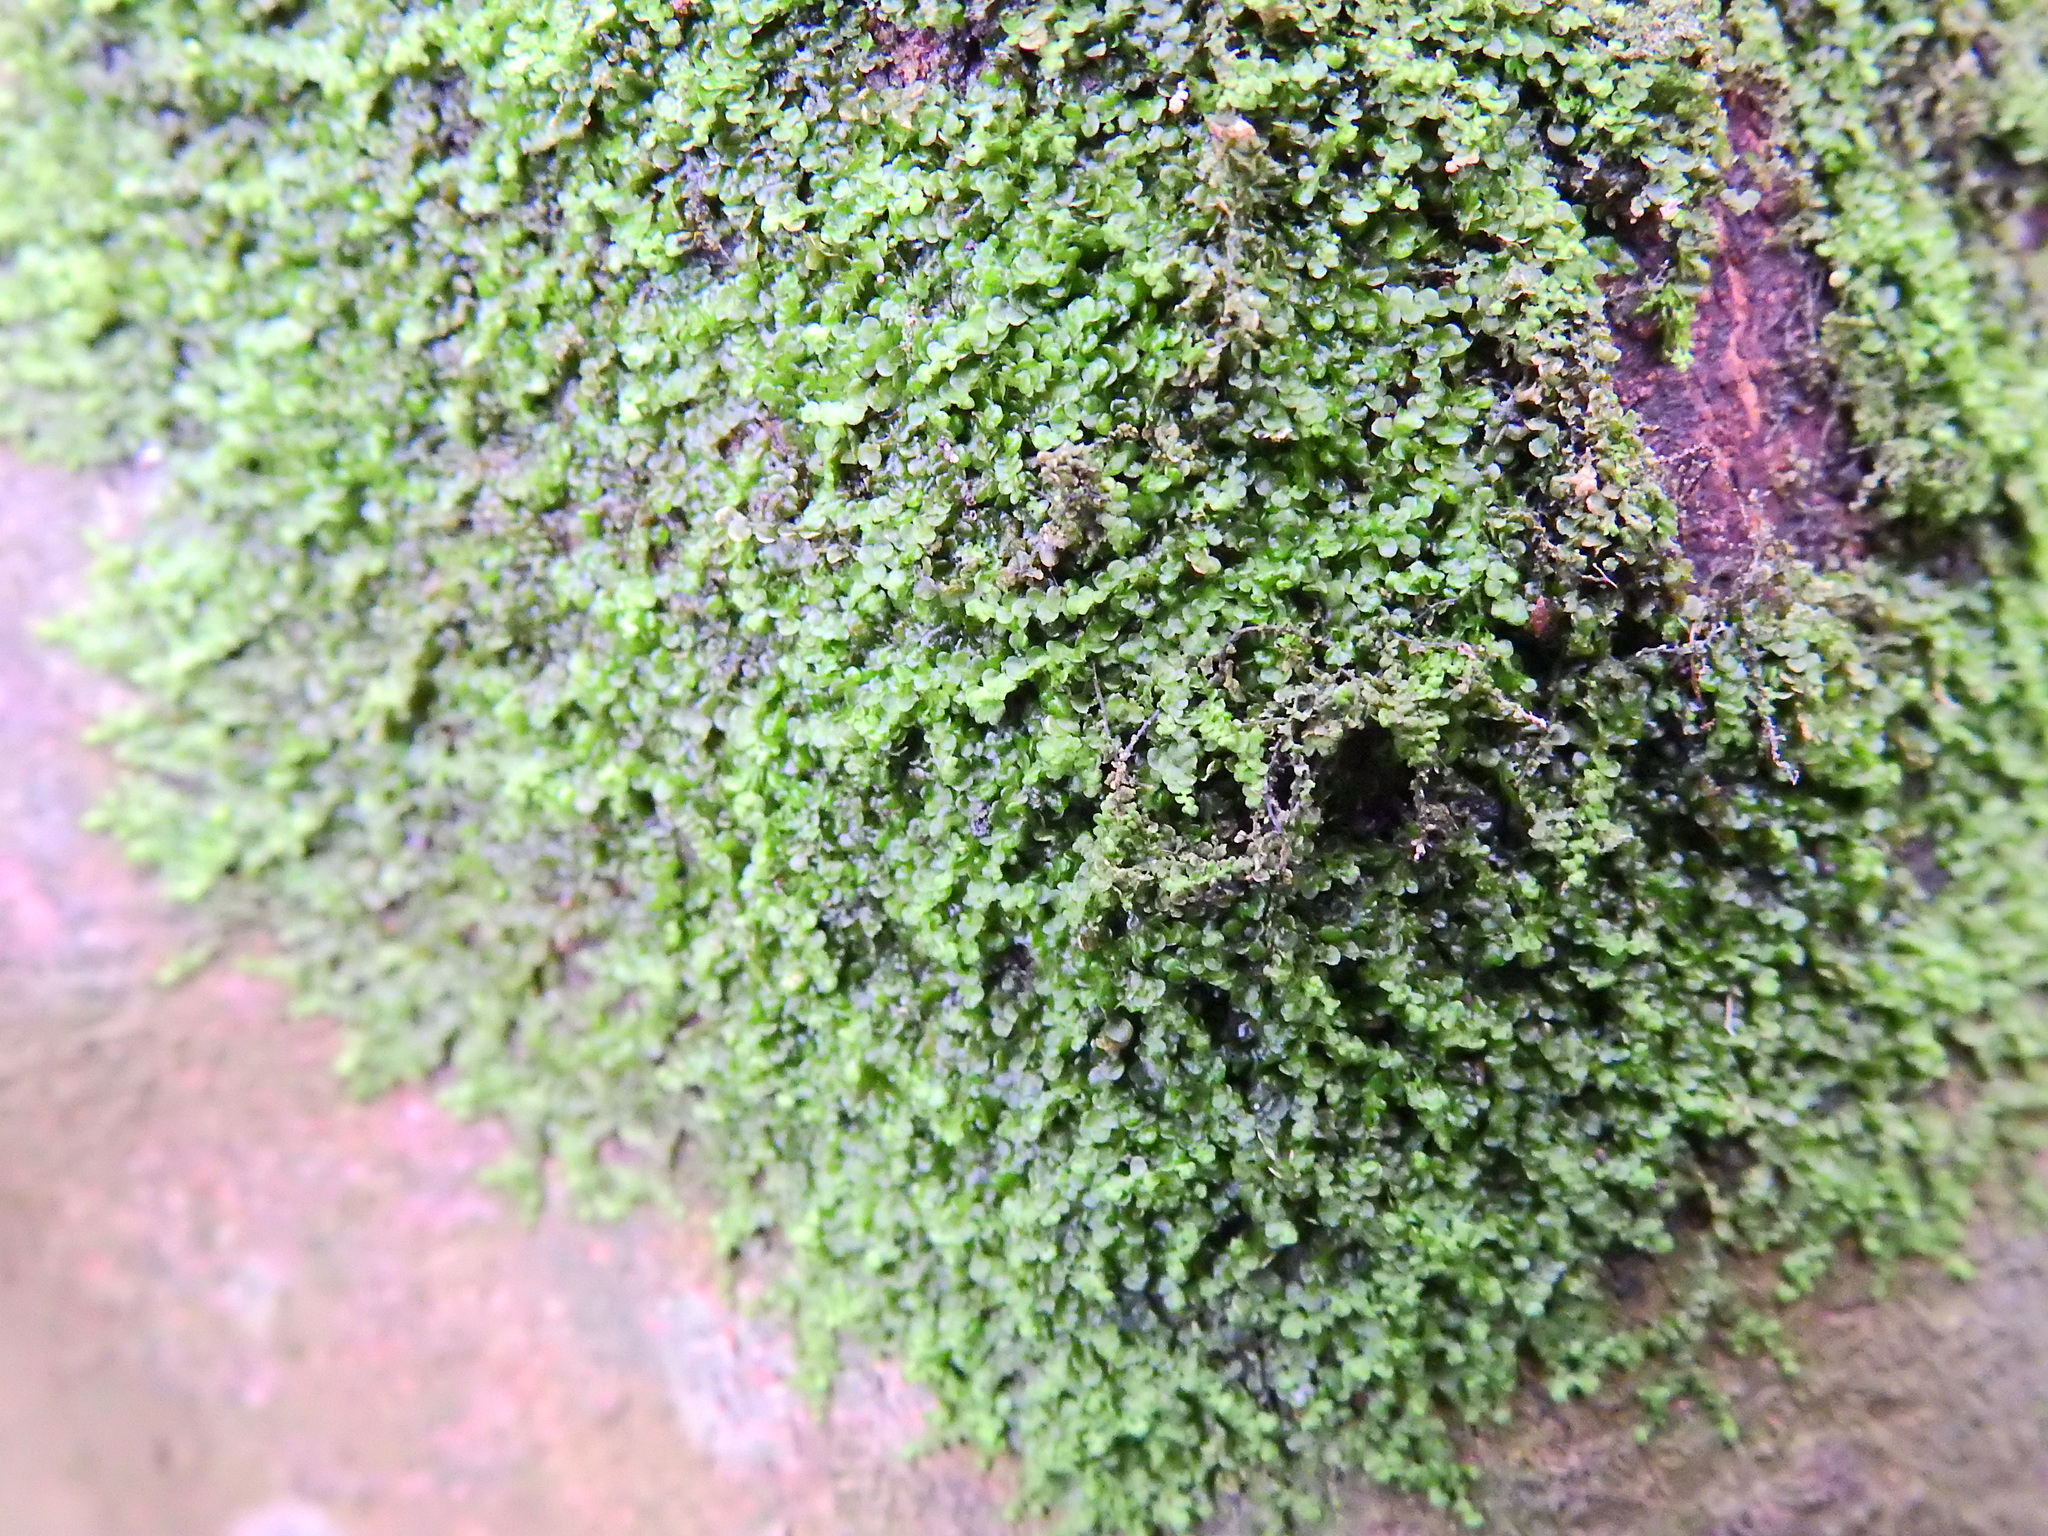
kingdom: Plantae
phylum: Marchantiophyta
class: Jungermanniopsida
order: Porellales
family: Frullaniaceae
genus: Frullania
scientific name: Frullania dilatata
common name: Dilated scalewort
